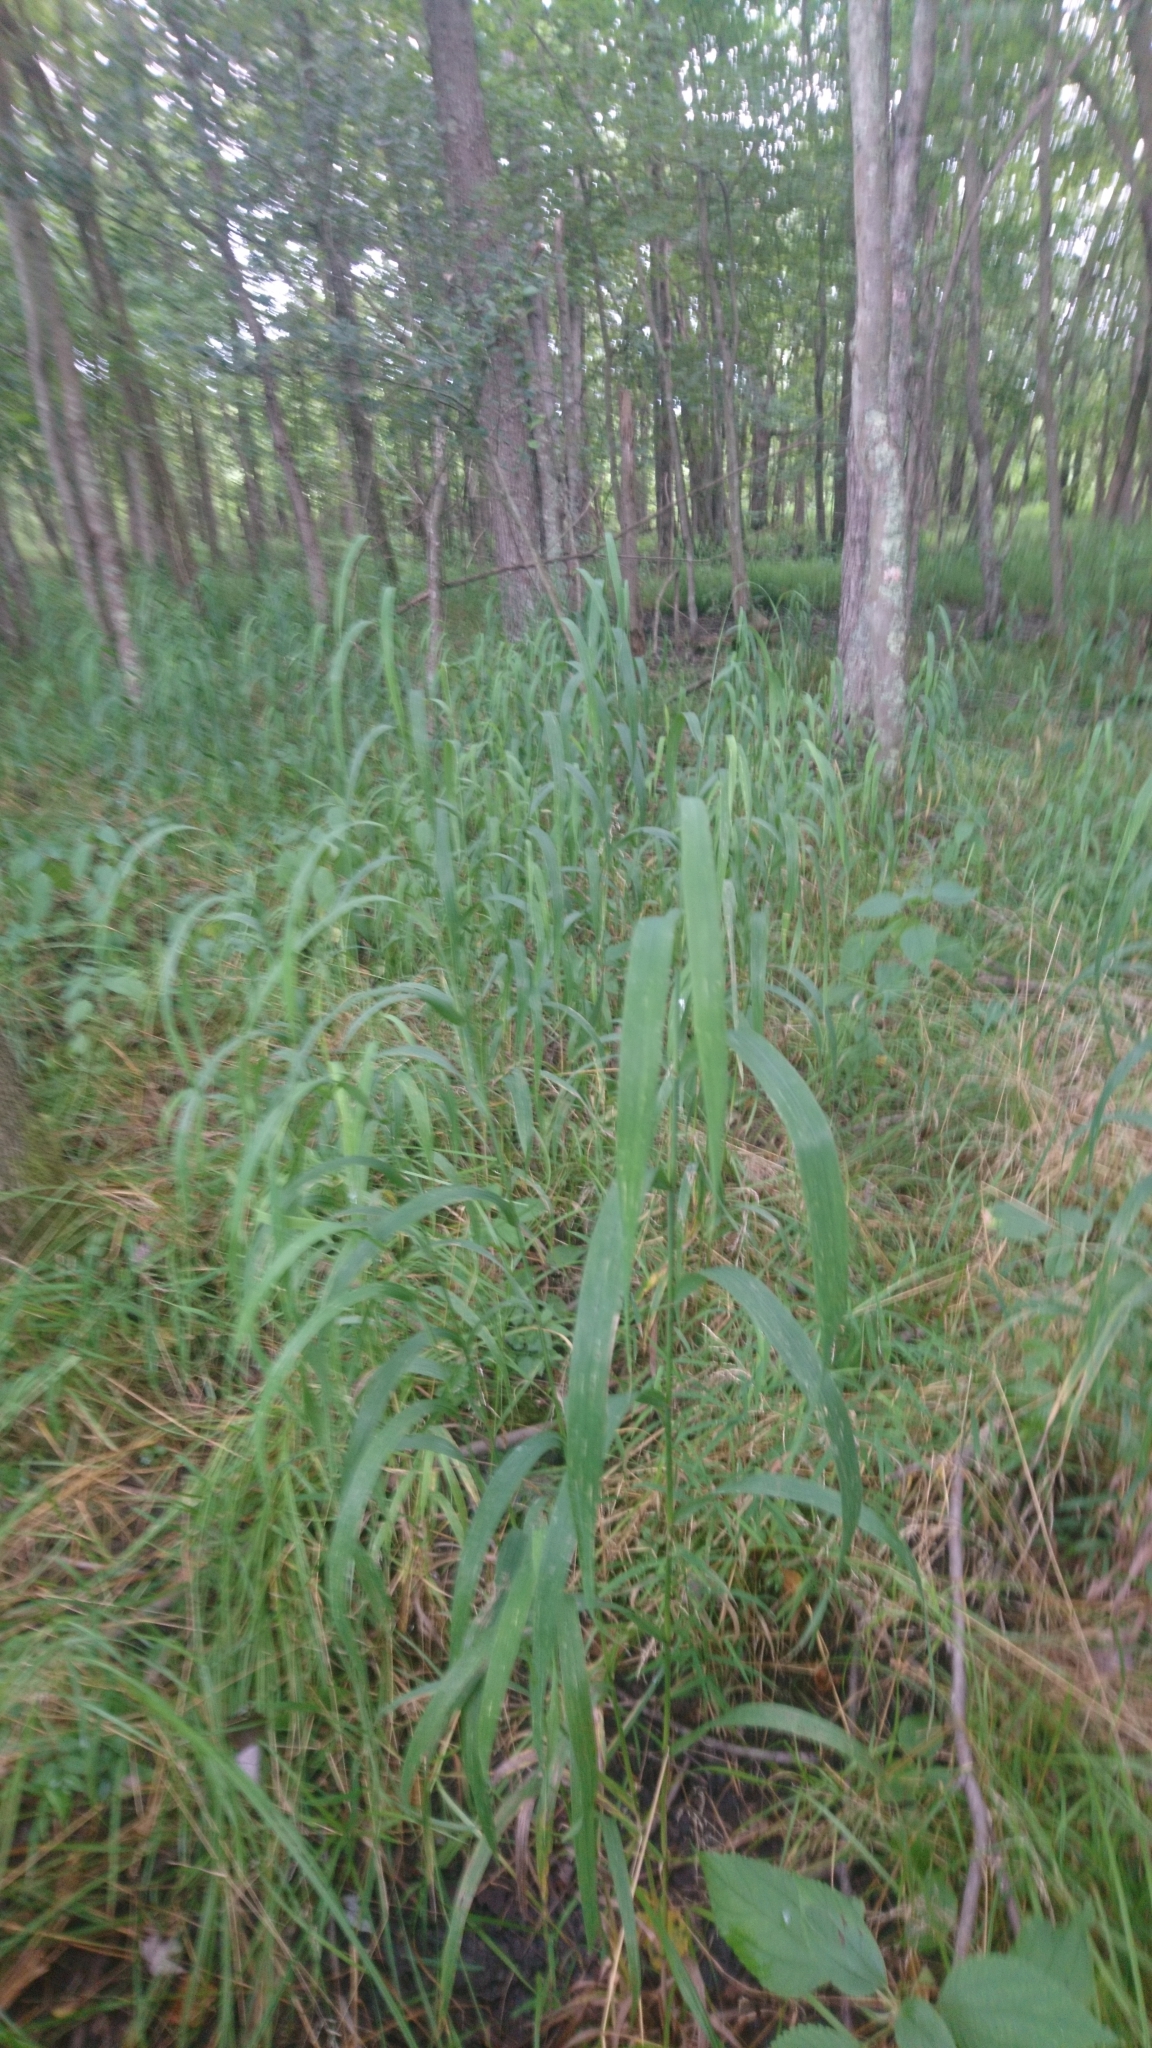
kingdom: Plantae
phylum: Tracheophyta
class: Liliopsida
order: Poales
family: Poaceae
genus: Cinna
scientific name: Cinna arundinacea
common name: Stout woodreed
